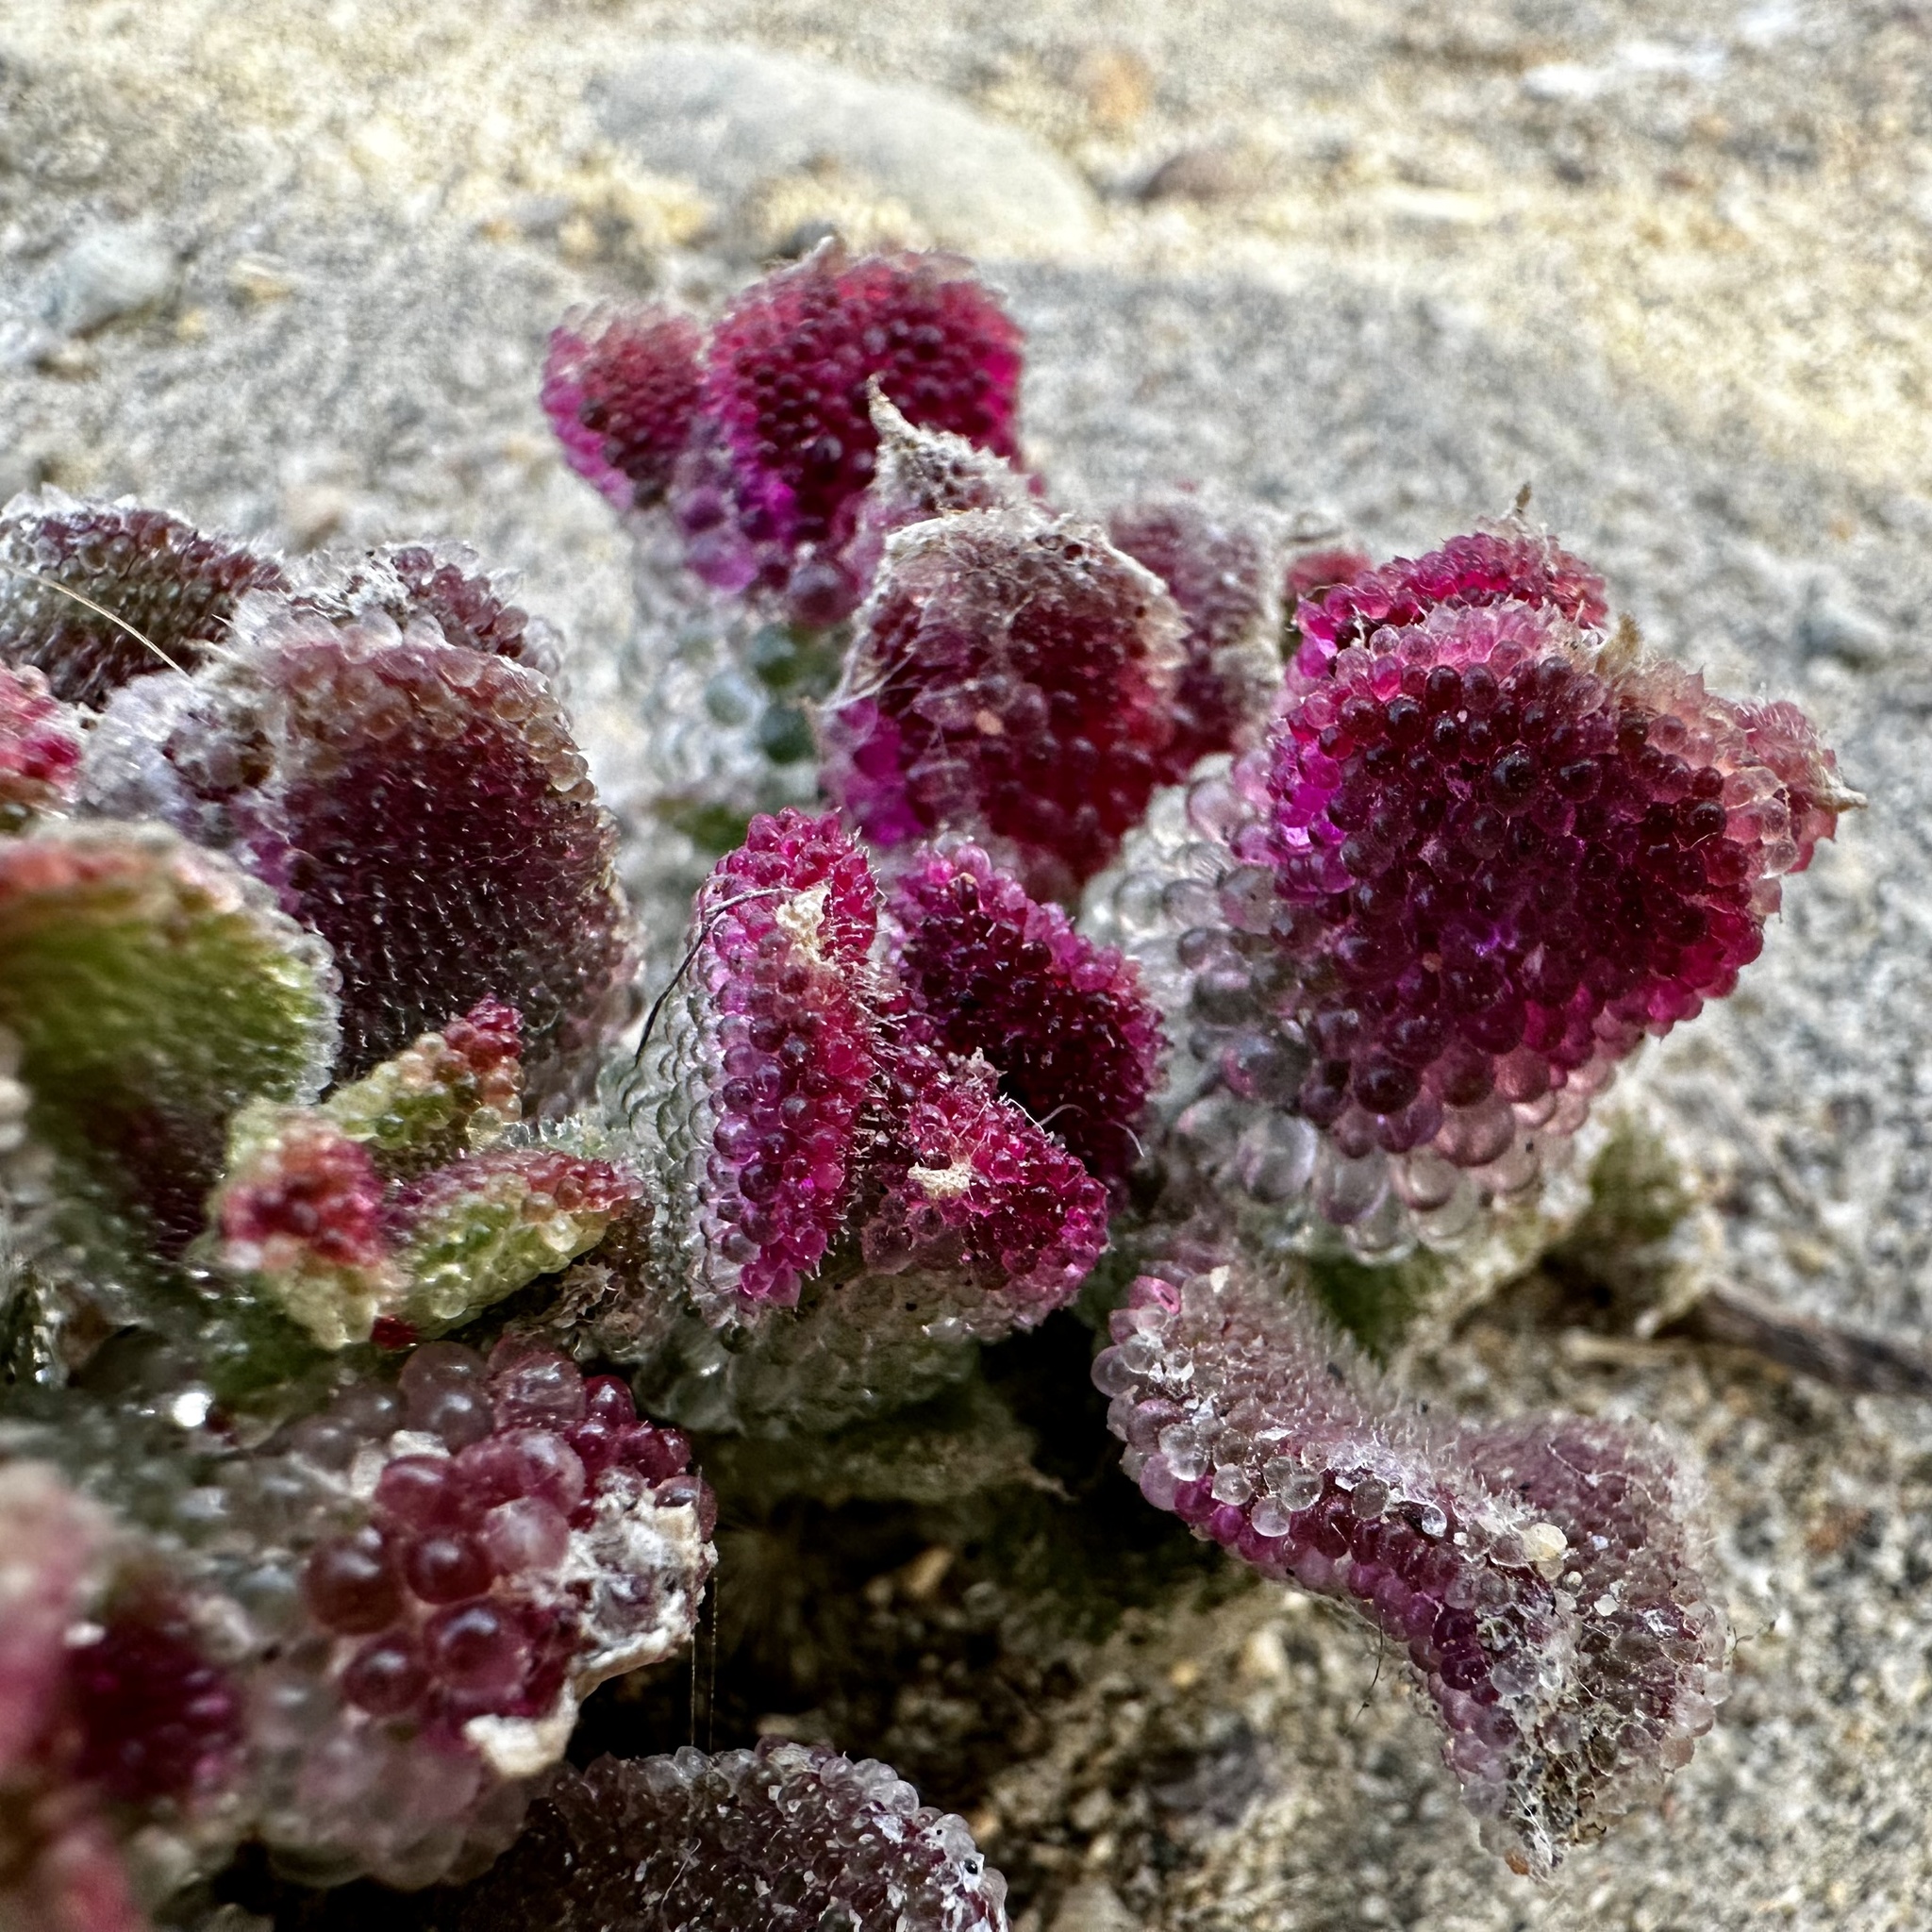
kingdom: Plantae
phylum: Tracheophyta
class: Magnoliopsida
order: Caryophyllales
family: Aizoaceae
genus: Mesembryanthemum
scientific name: Mesembryanthemum crystallinum
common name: Common iceplant
